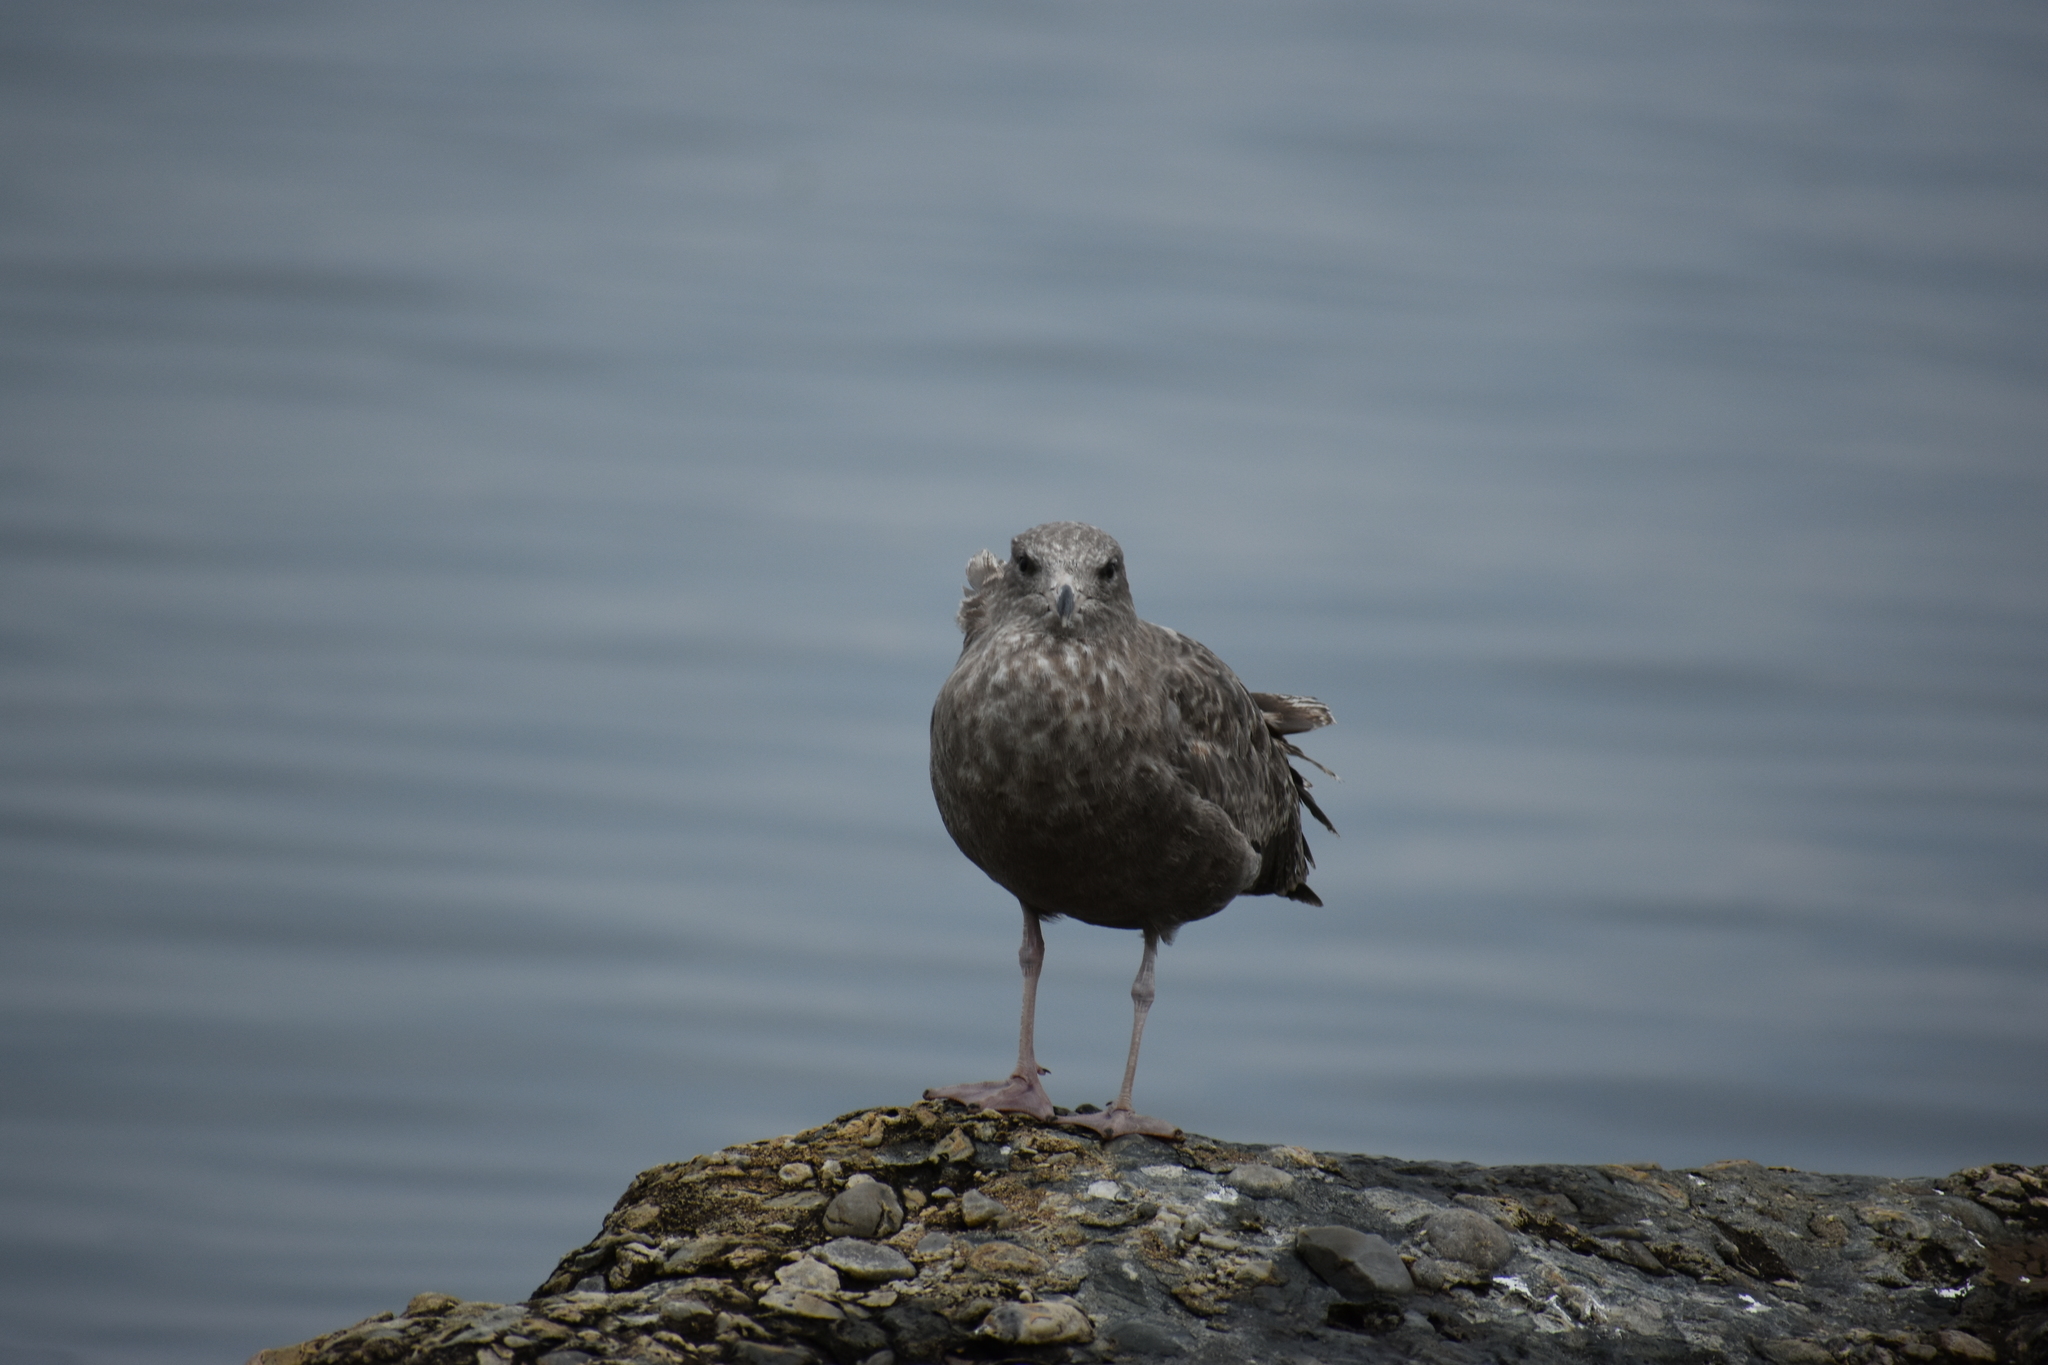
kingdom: Animalia
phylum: Chordata
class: Aves
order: Charadriiformes
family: Laridae
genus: Larus
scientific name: Larus argentatus
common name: Herring gull
